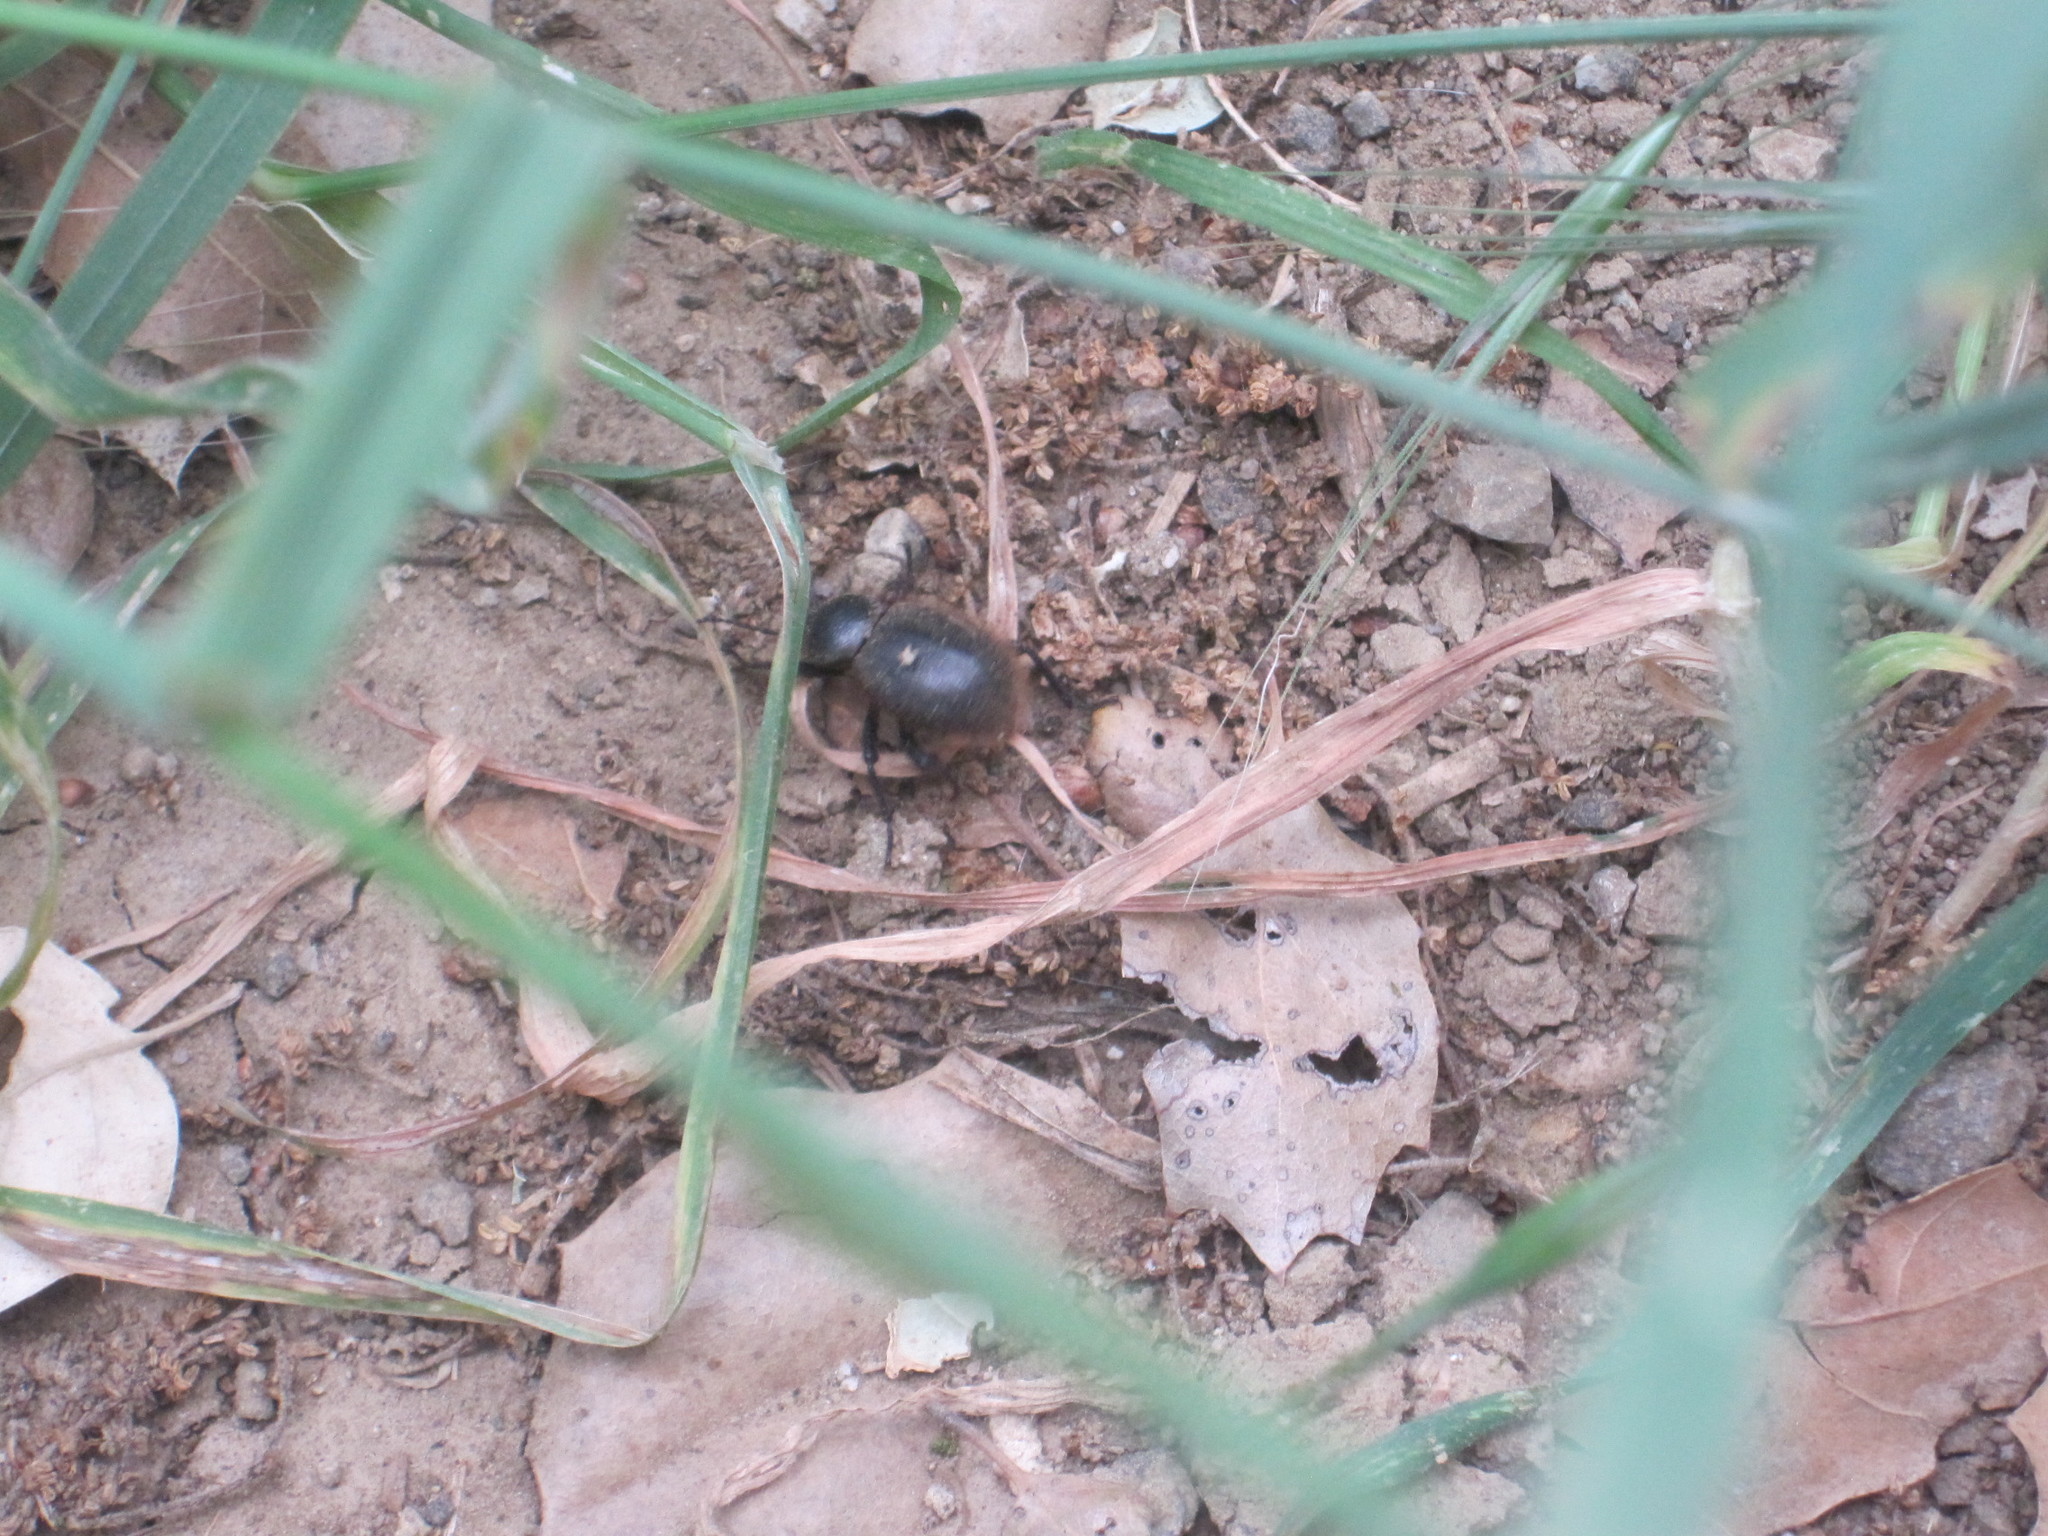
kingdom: Animalia
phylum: Arthropoda
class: Insecta
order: Coleoptera
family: Tenebrionidae
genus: Eleodes
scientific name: Eleodes osculans
